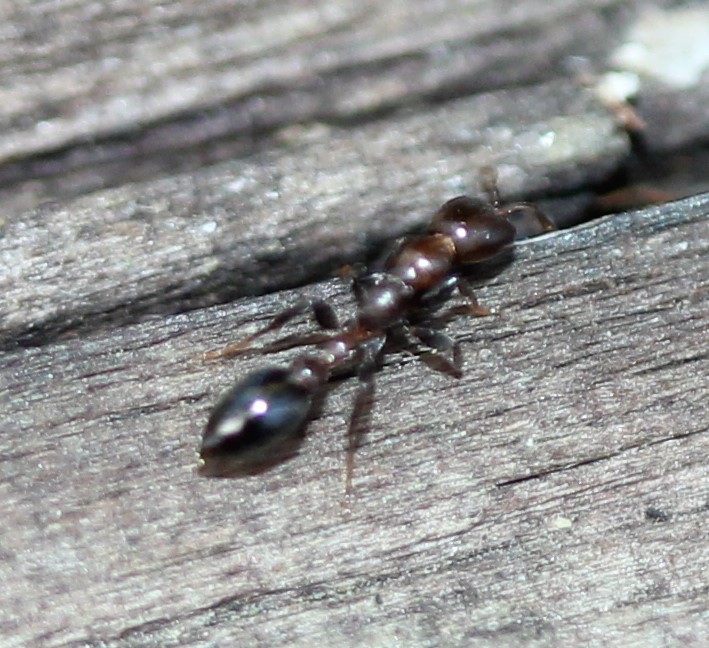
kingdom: Animalia
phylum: Arthropoda
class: Insecta
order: Hymenoptera
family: Formicidae
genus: Pseudomyrmex
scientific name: Pseudomyrmex ejectus
